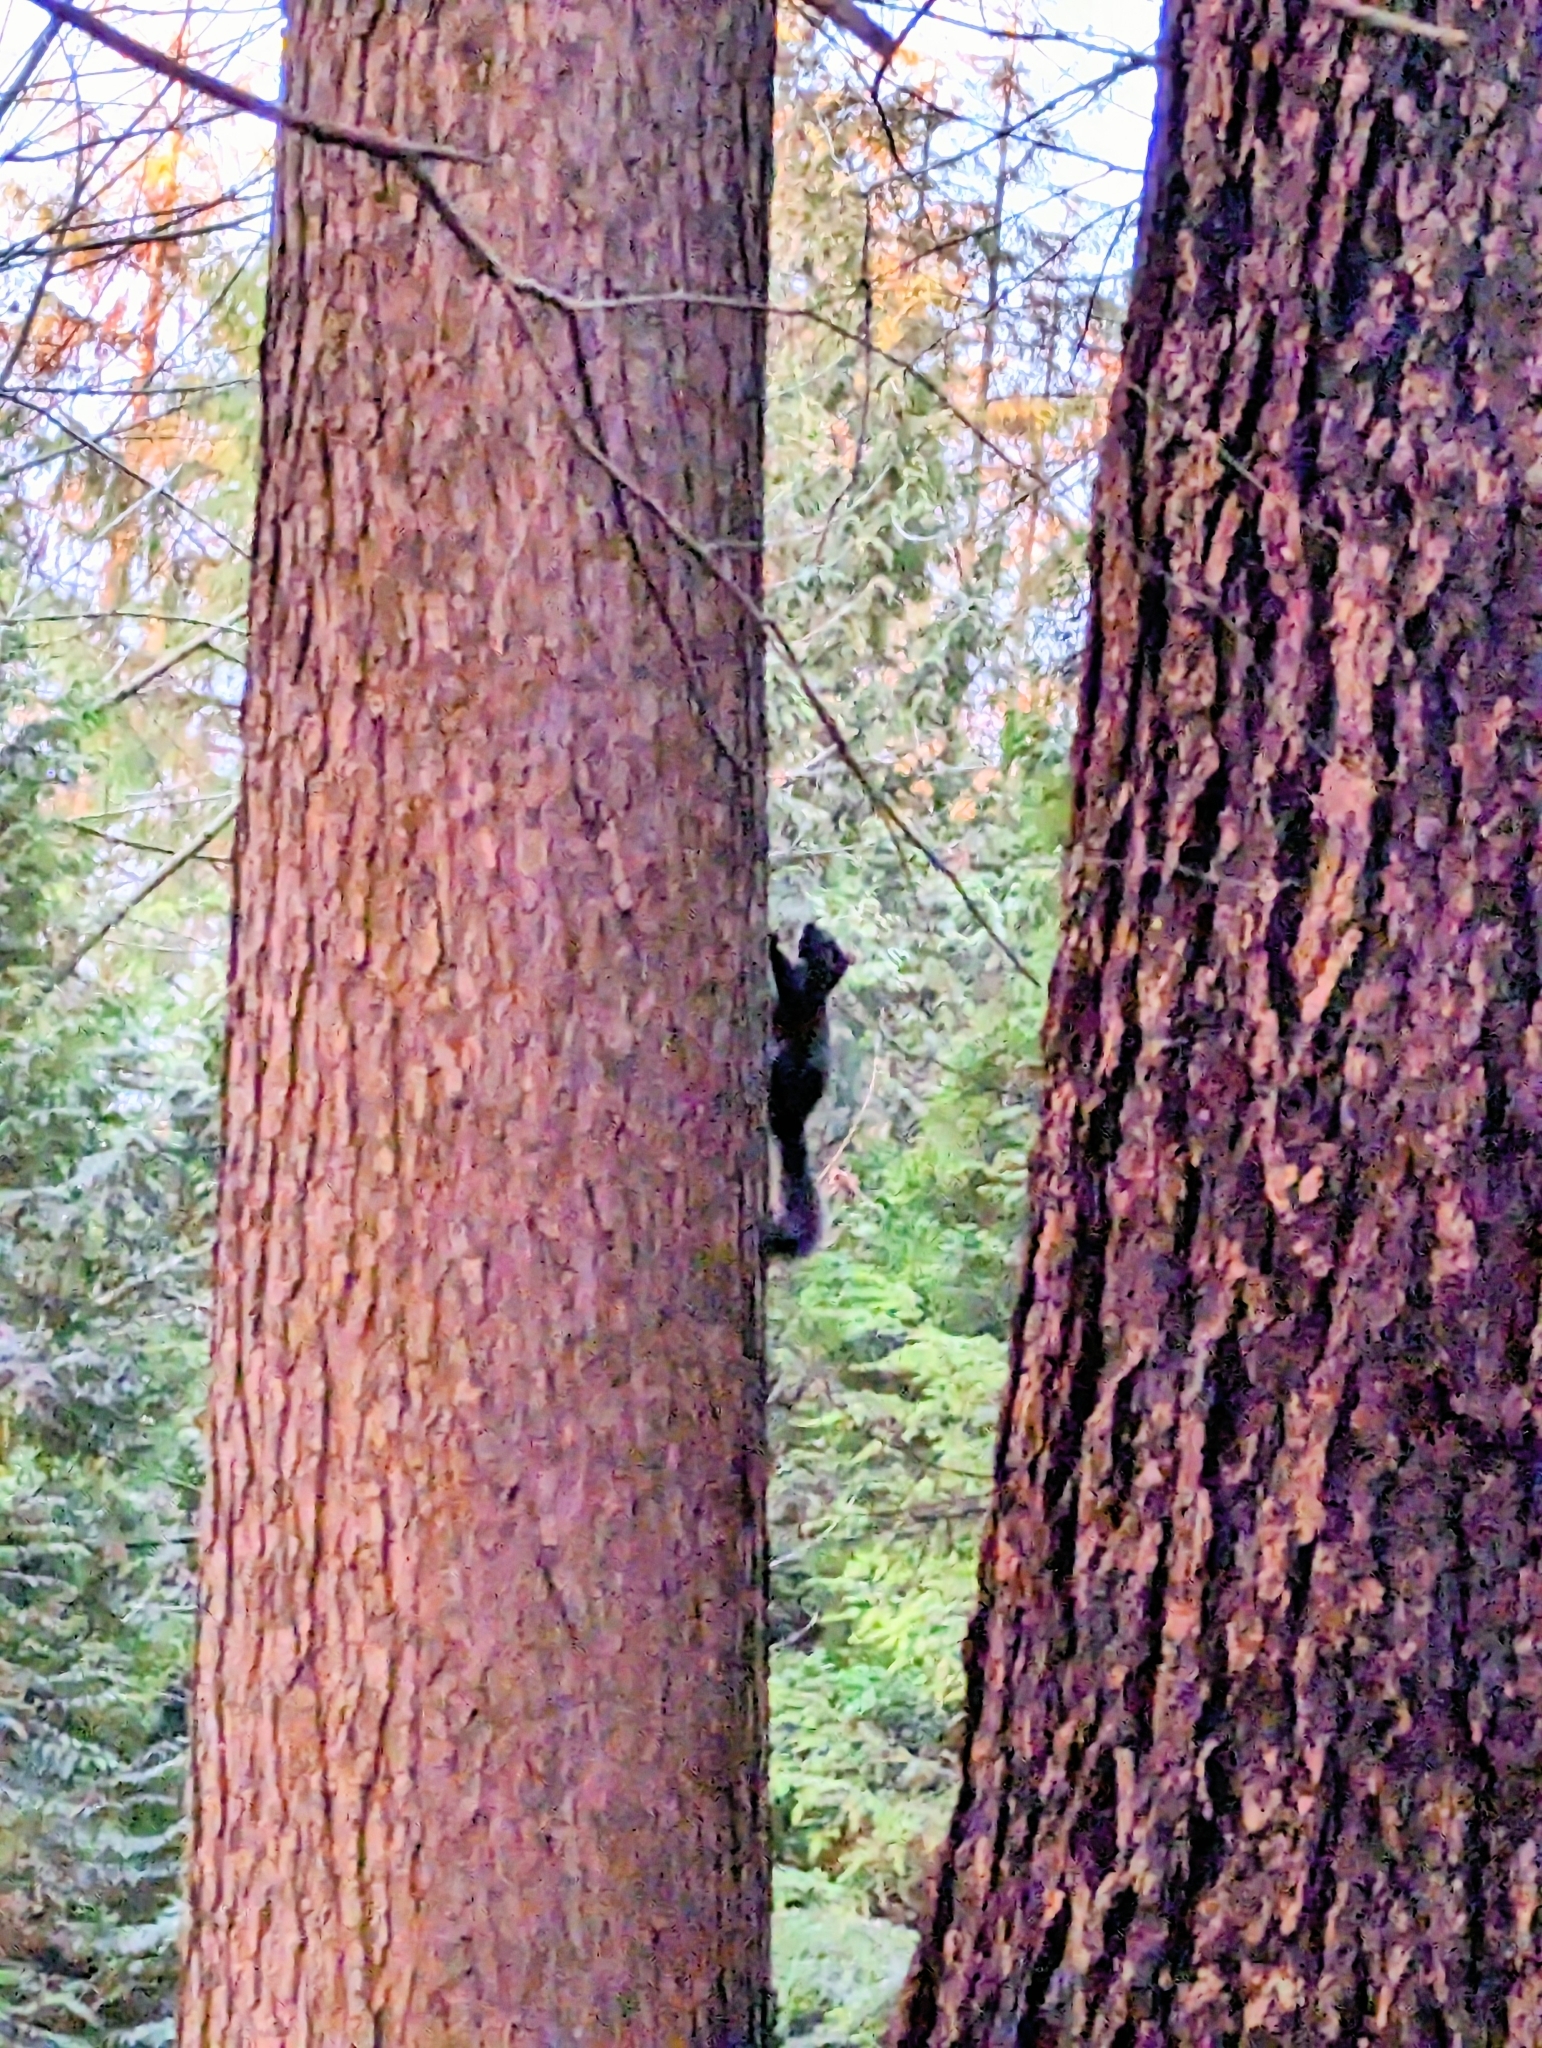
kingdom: Animalia
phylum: Chordata
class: Mammalia
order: Rodentia
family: Sciuridae
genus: Tamiasciurus
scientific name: Tamiasciurus douglasii
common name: Douglas's squirrel
